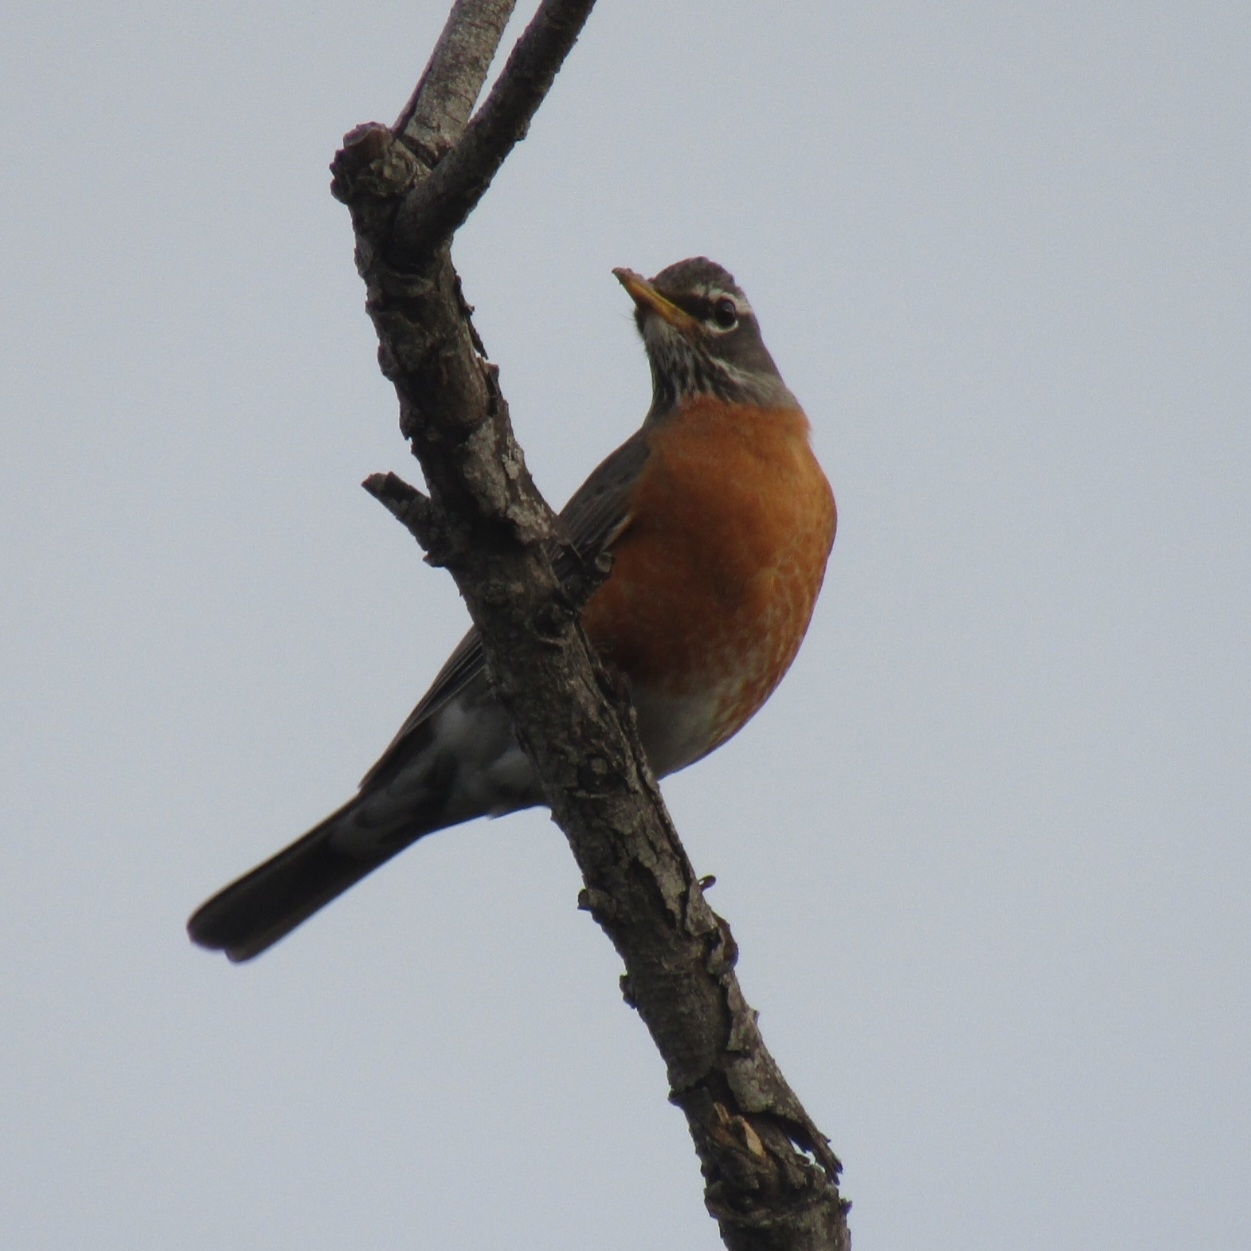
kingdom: Animalia
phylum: Chordata
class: Aves
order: Passeriformes
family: Turdidae
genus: Turdus
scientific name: Turdus migratorius
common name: American robin
